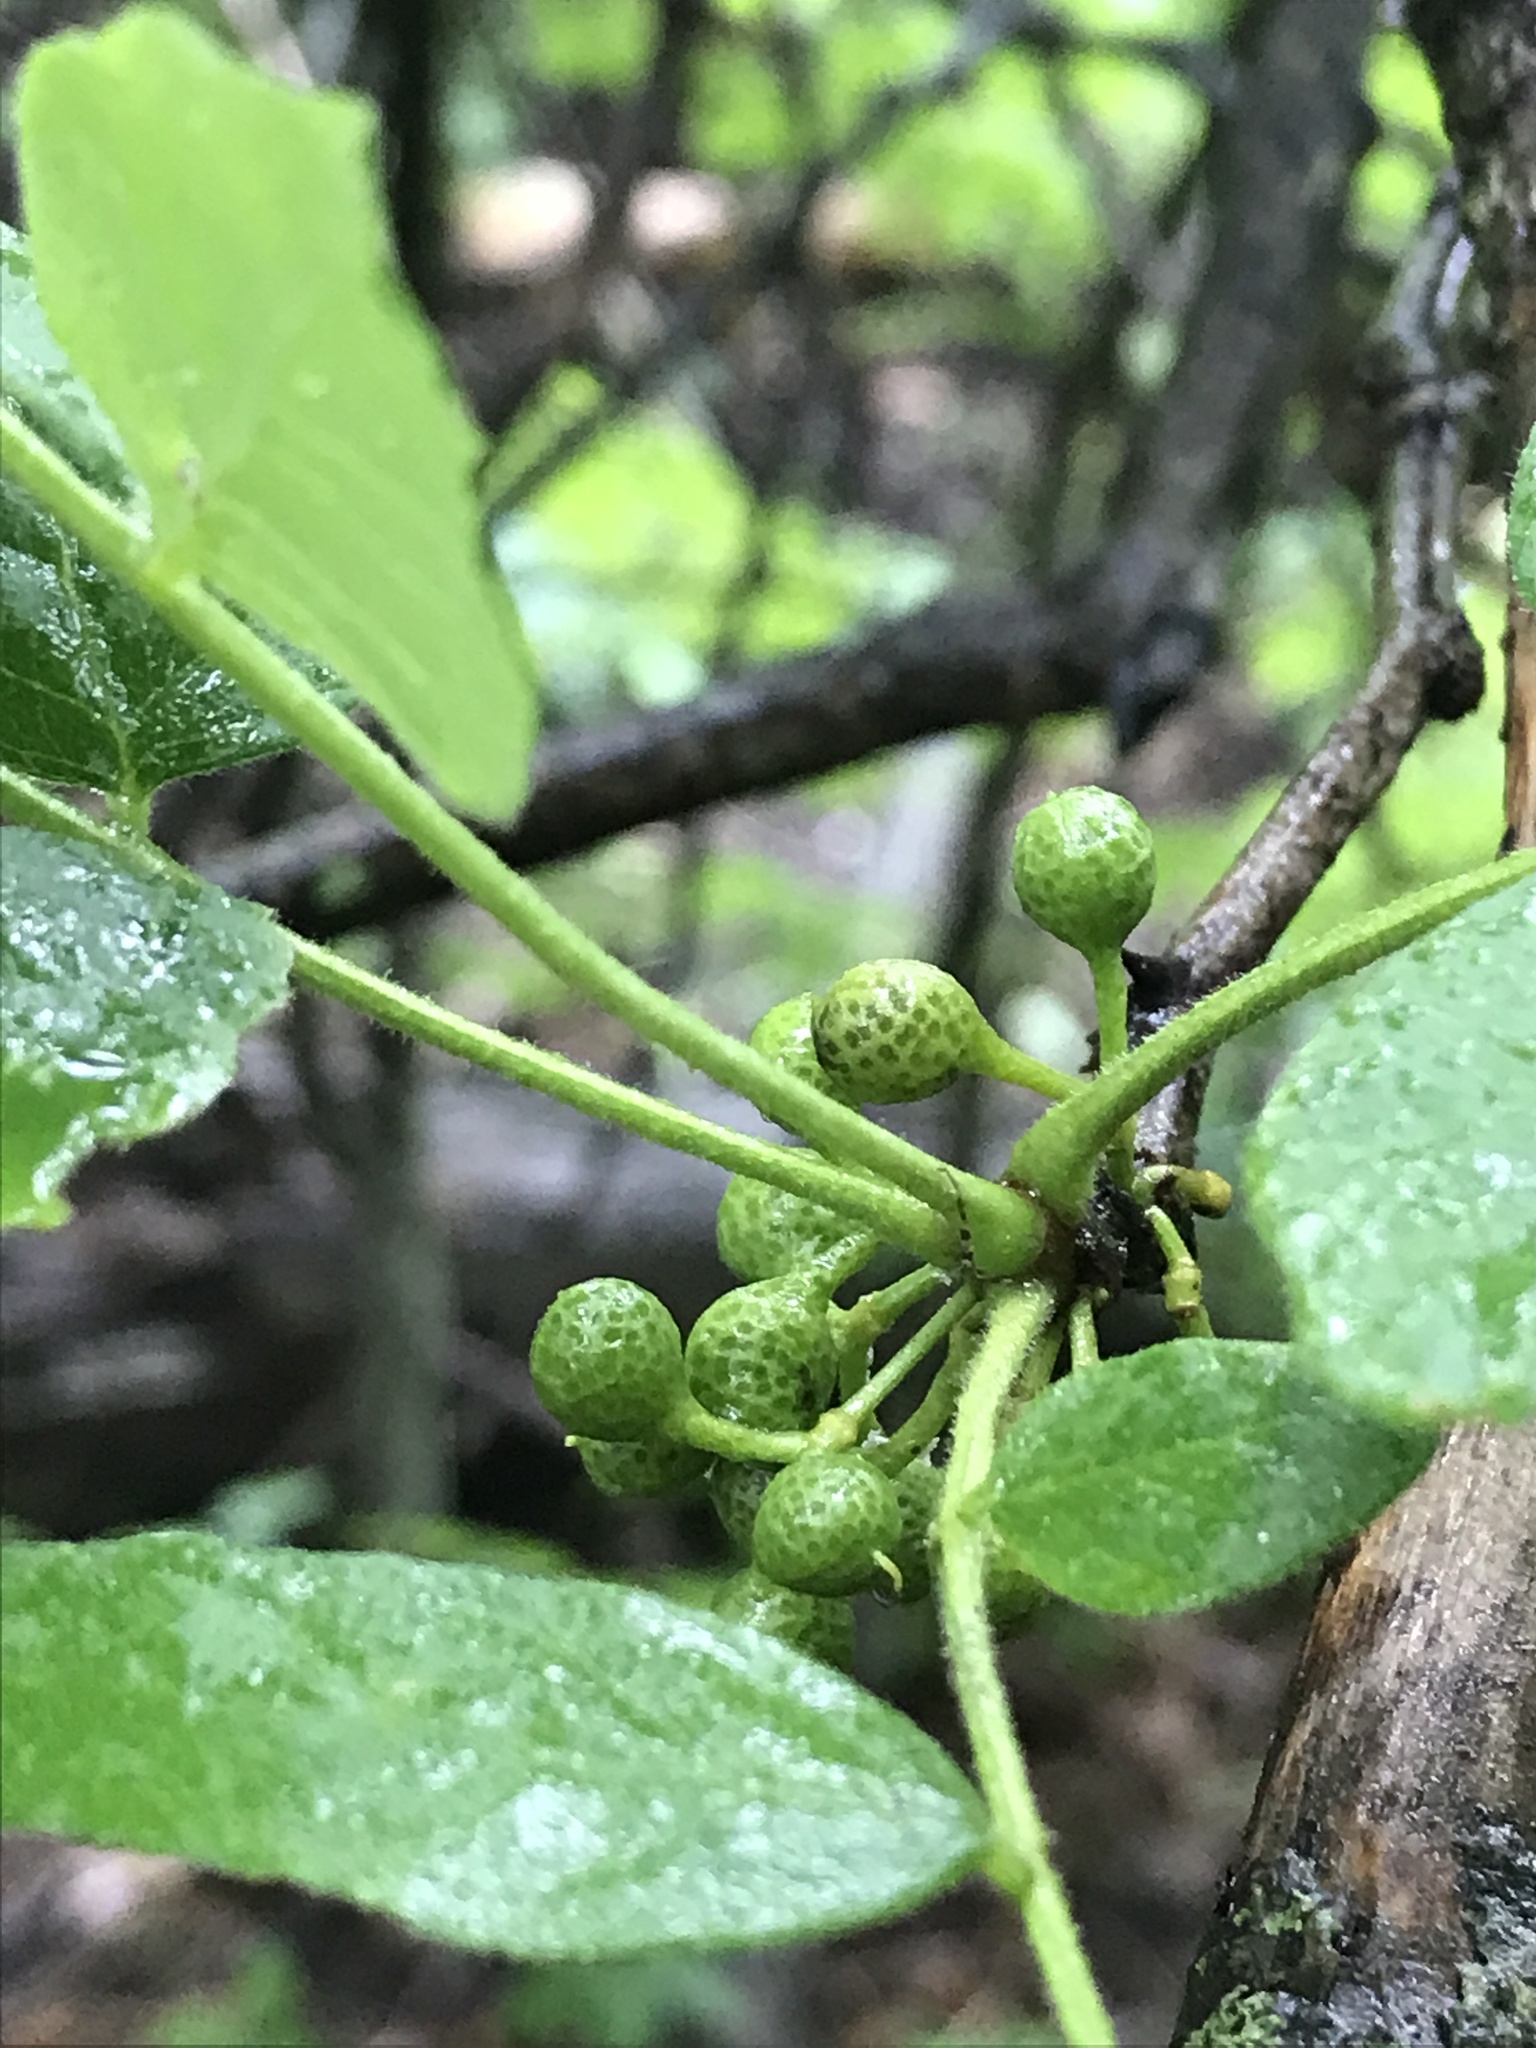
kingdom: Plantae
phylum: Tracheophyta
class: Magnoliopsida
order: Sapindales
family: Rutaceae
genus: Zanthoxylum
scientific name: Zanthoxylum americanum
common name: Northern prickly-ash
